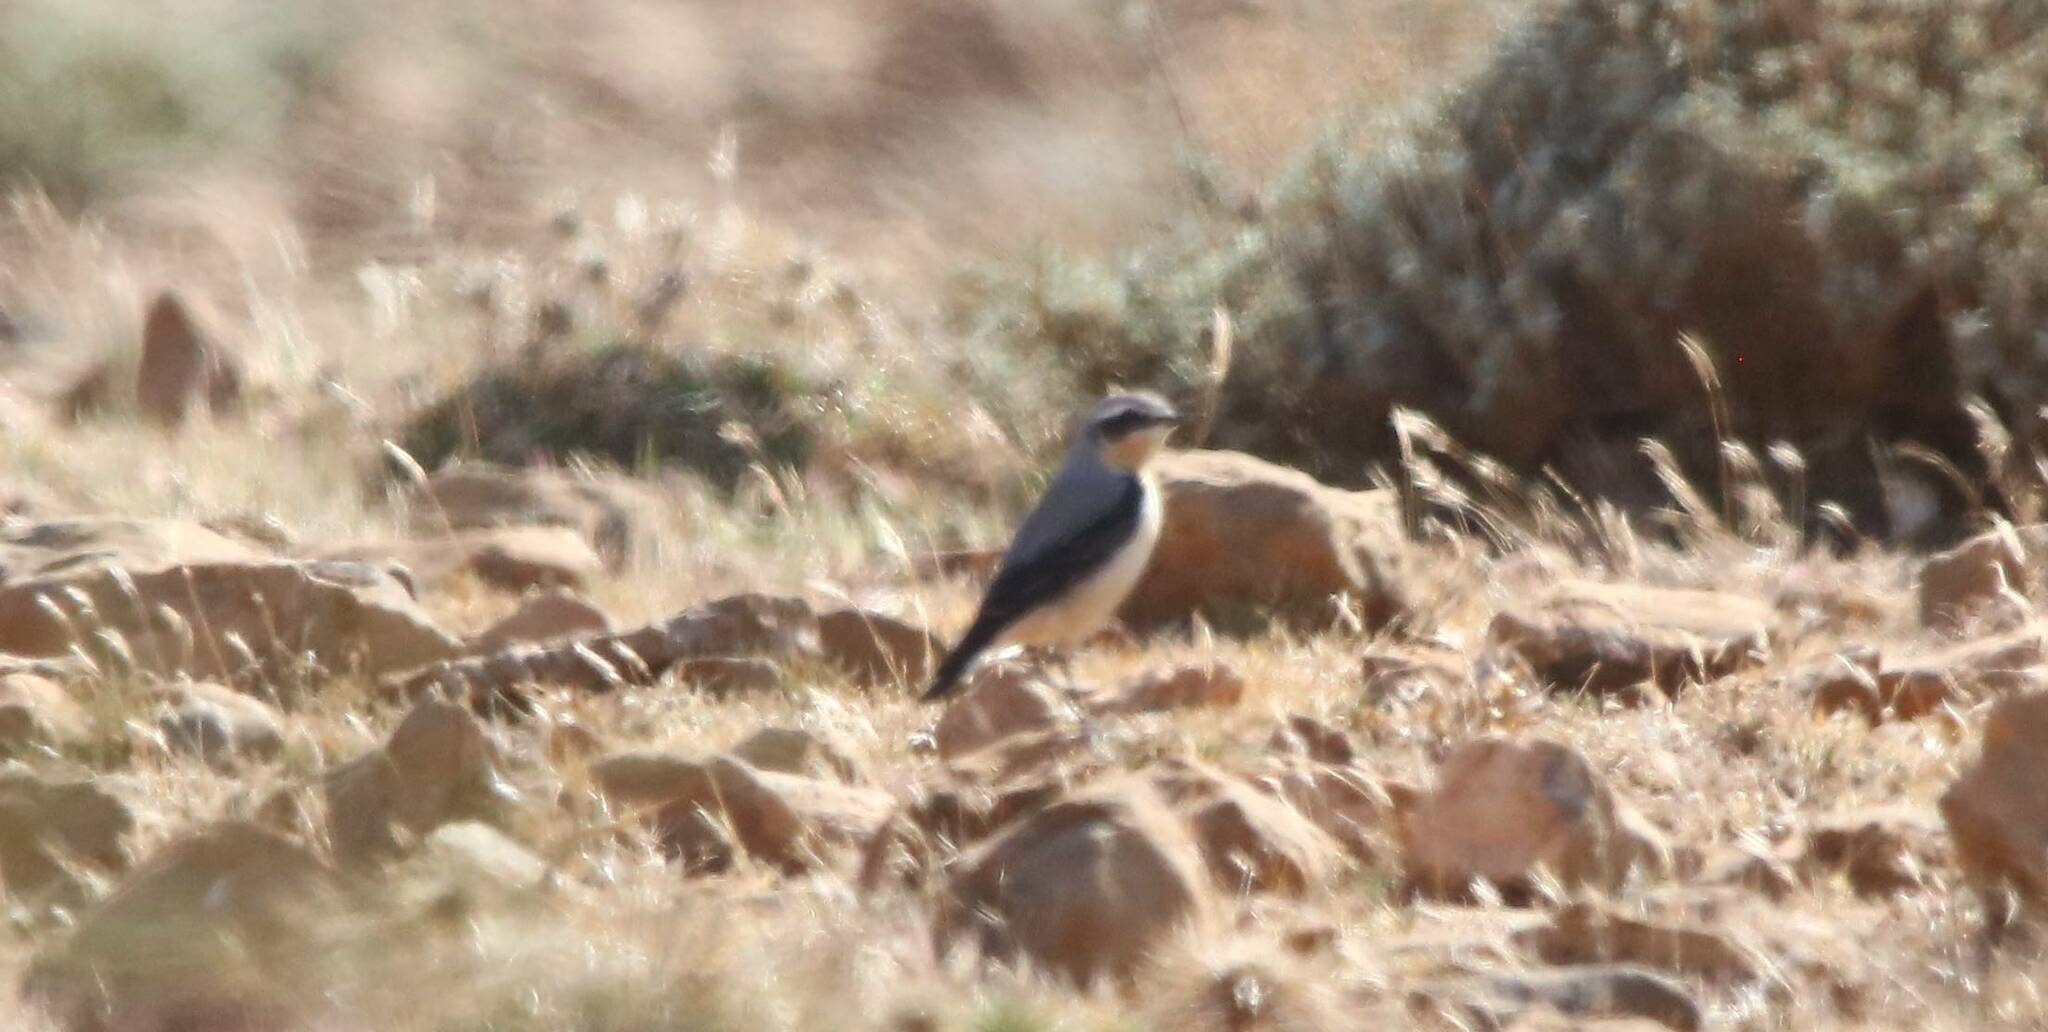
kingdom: Animalia
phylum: Chordata
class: Aves
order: Passeriformes
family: Muscicapidae
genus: Oenanthe
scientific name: Oenanthe oenanthe
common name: Northern wheatear
